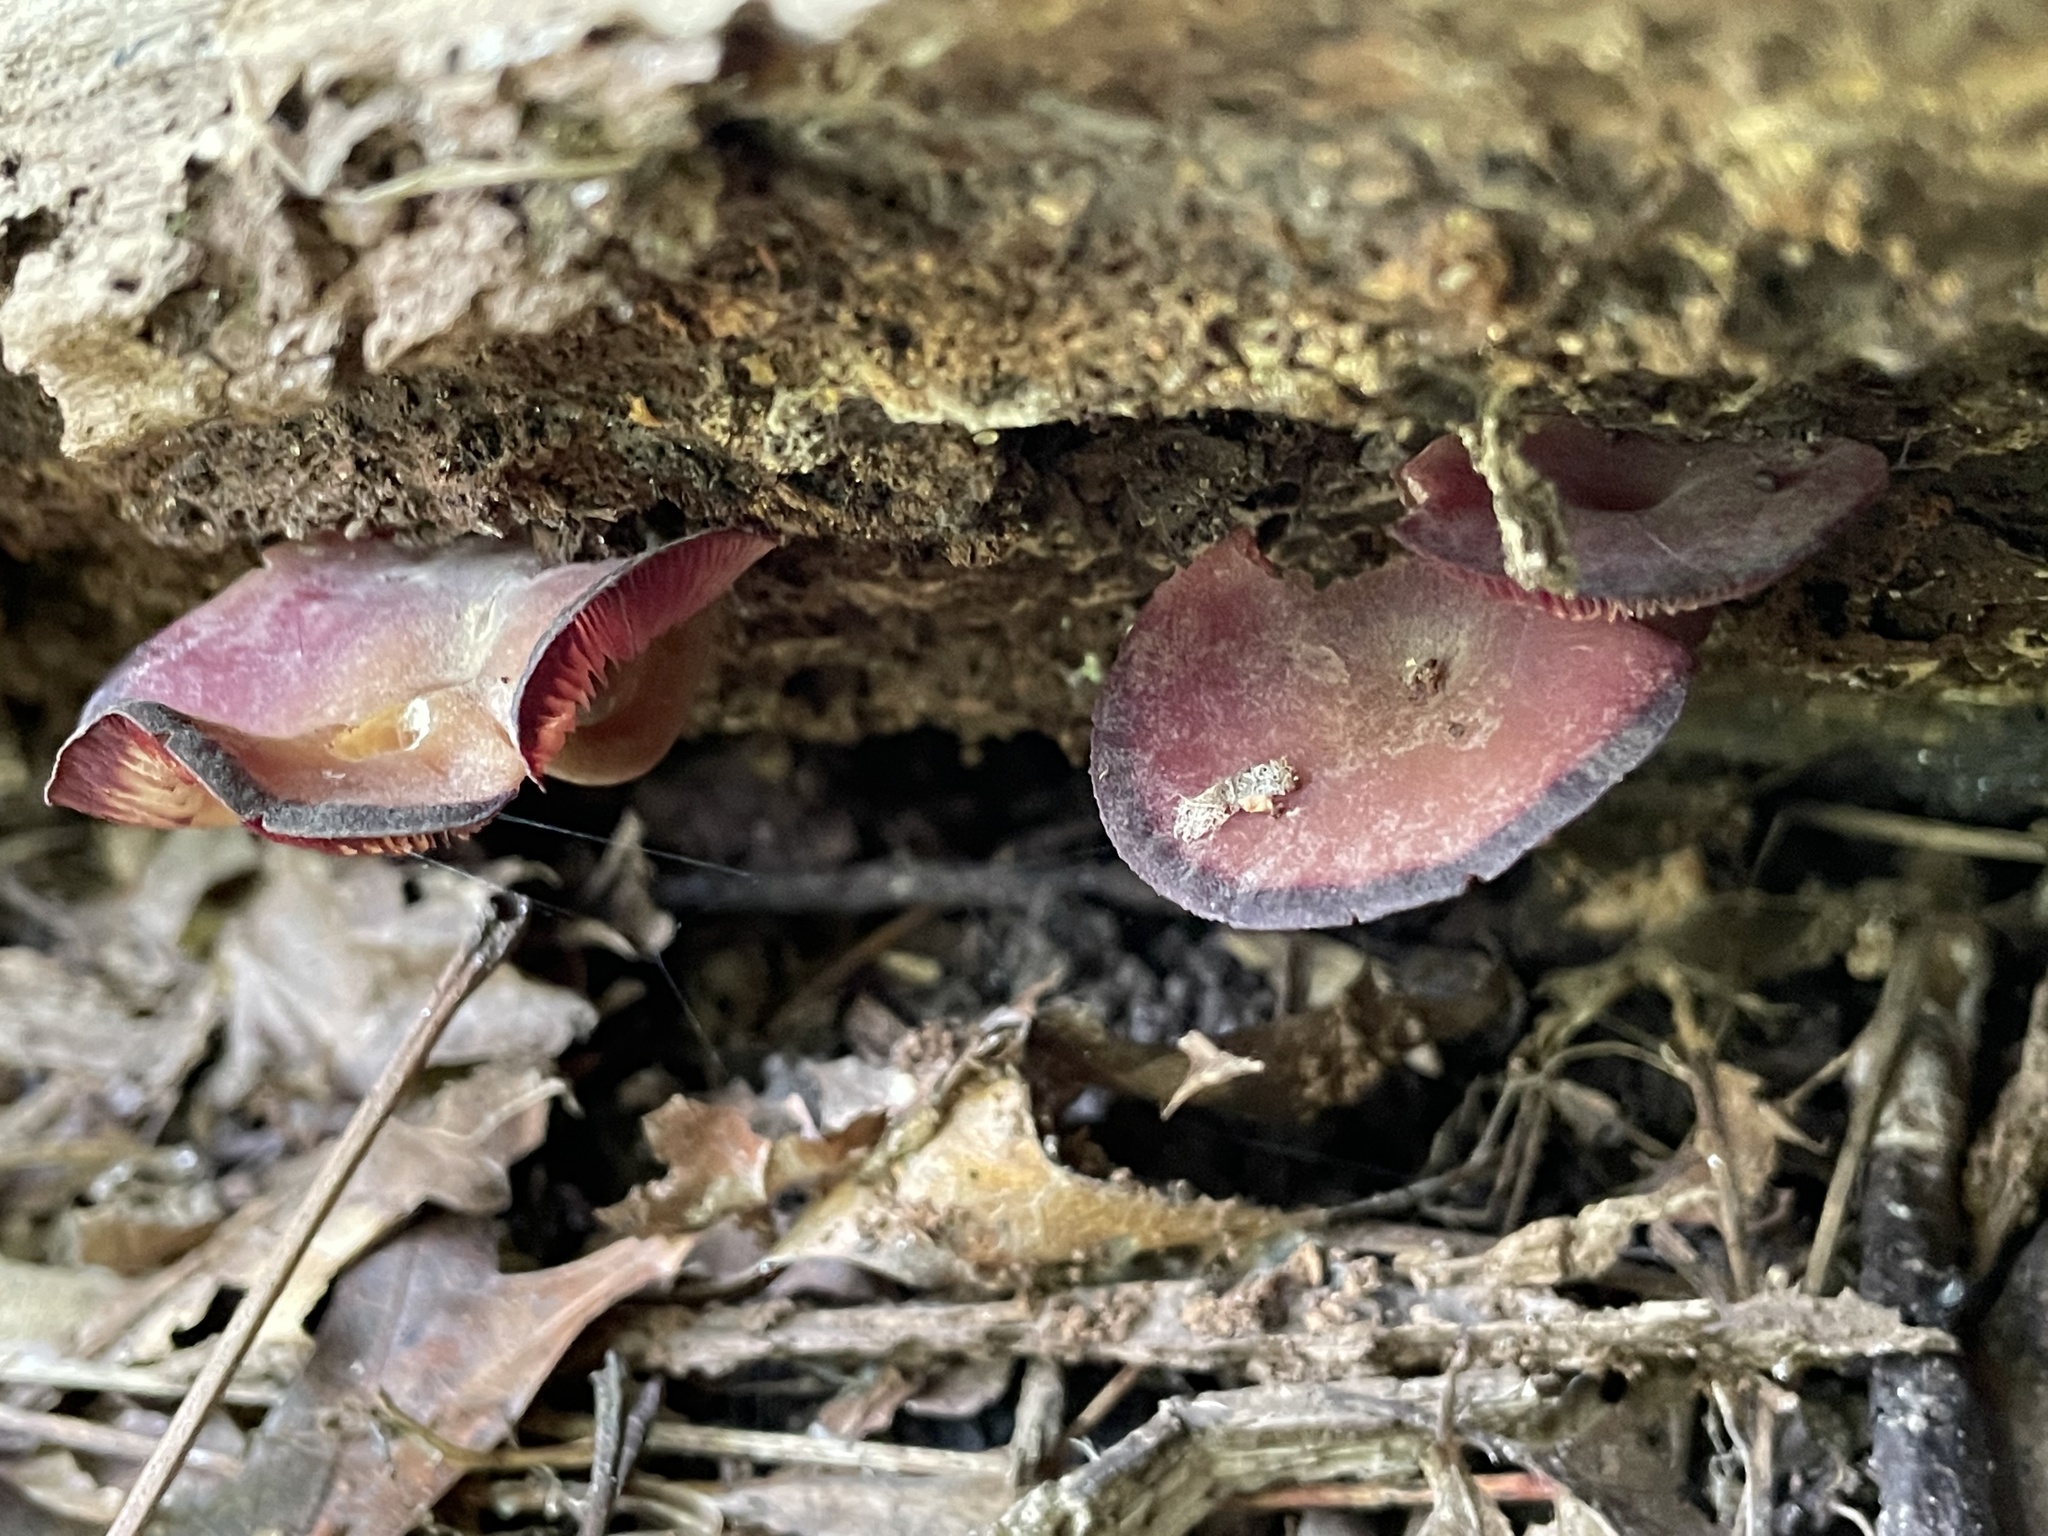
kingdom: Fungi
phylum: Basidiomycota
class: Agaricomycetes
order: Agaricales
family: Callistosporiaceae
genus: Callistosporium
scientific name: Callistosporium purpureomarginatum
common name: Purple-edged lute
